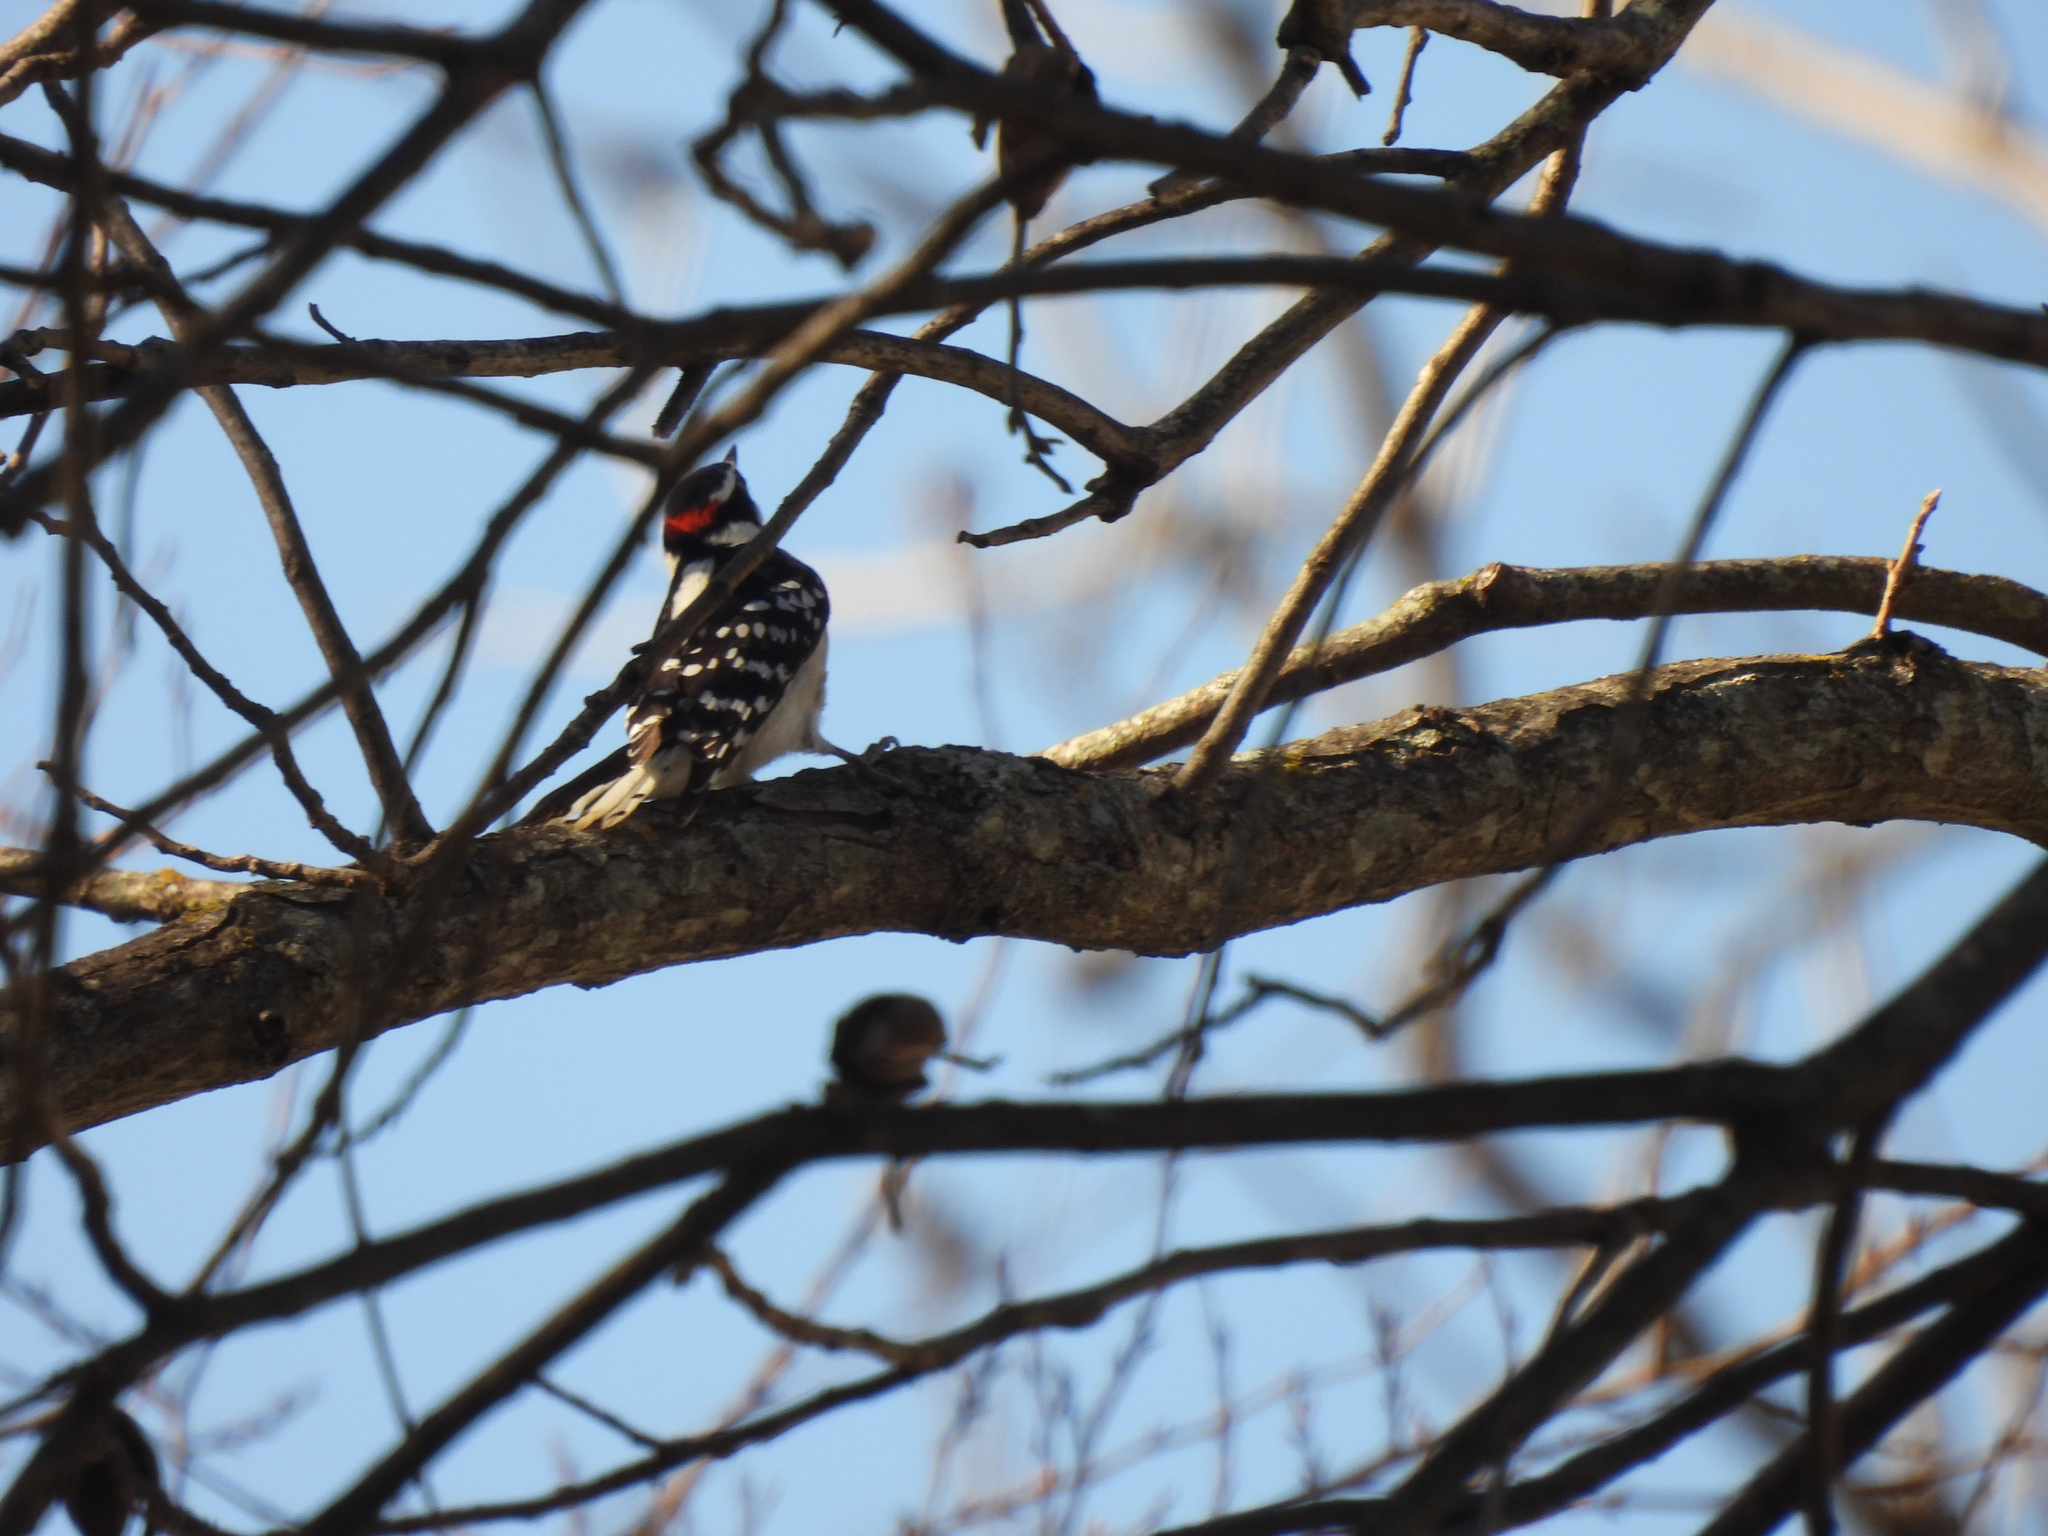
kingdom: Animalia
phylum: Chordata
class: Aves
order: Piciformes
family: Picidae
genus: Dryobates
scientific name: Dryobates pubescens
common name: Downy woodpecker
